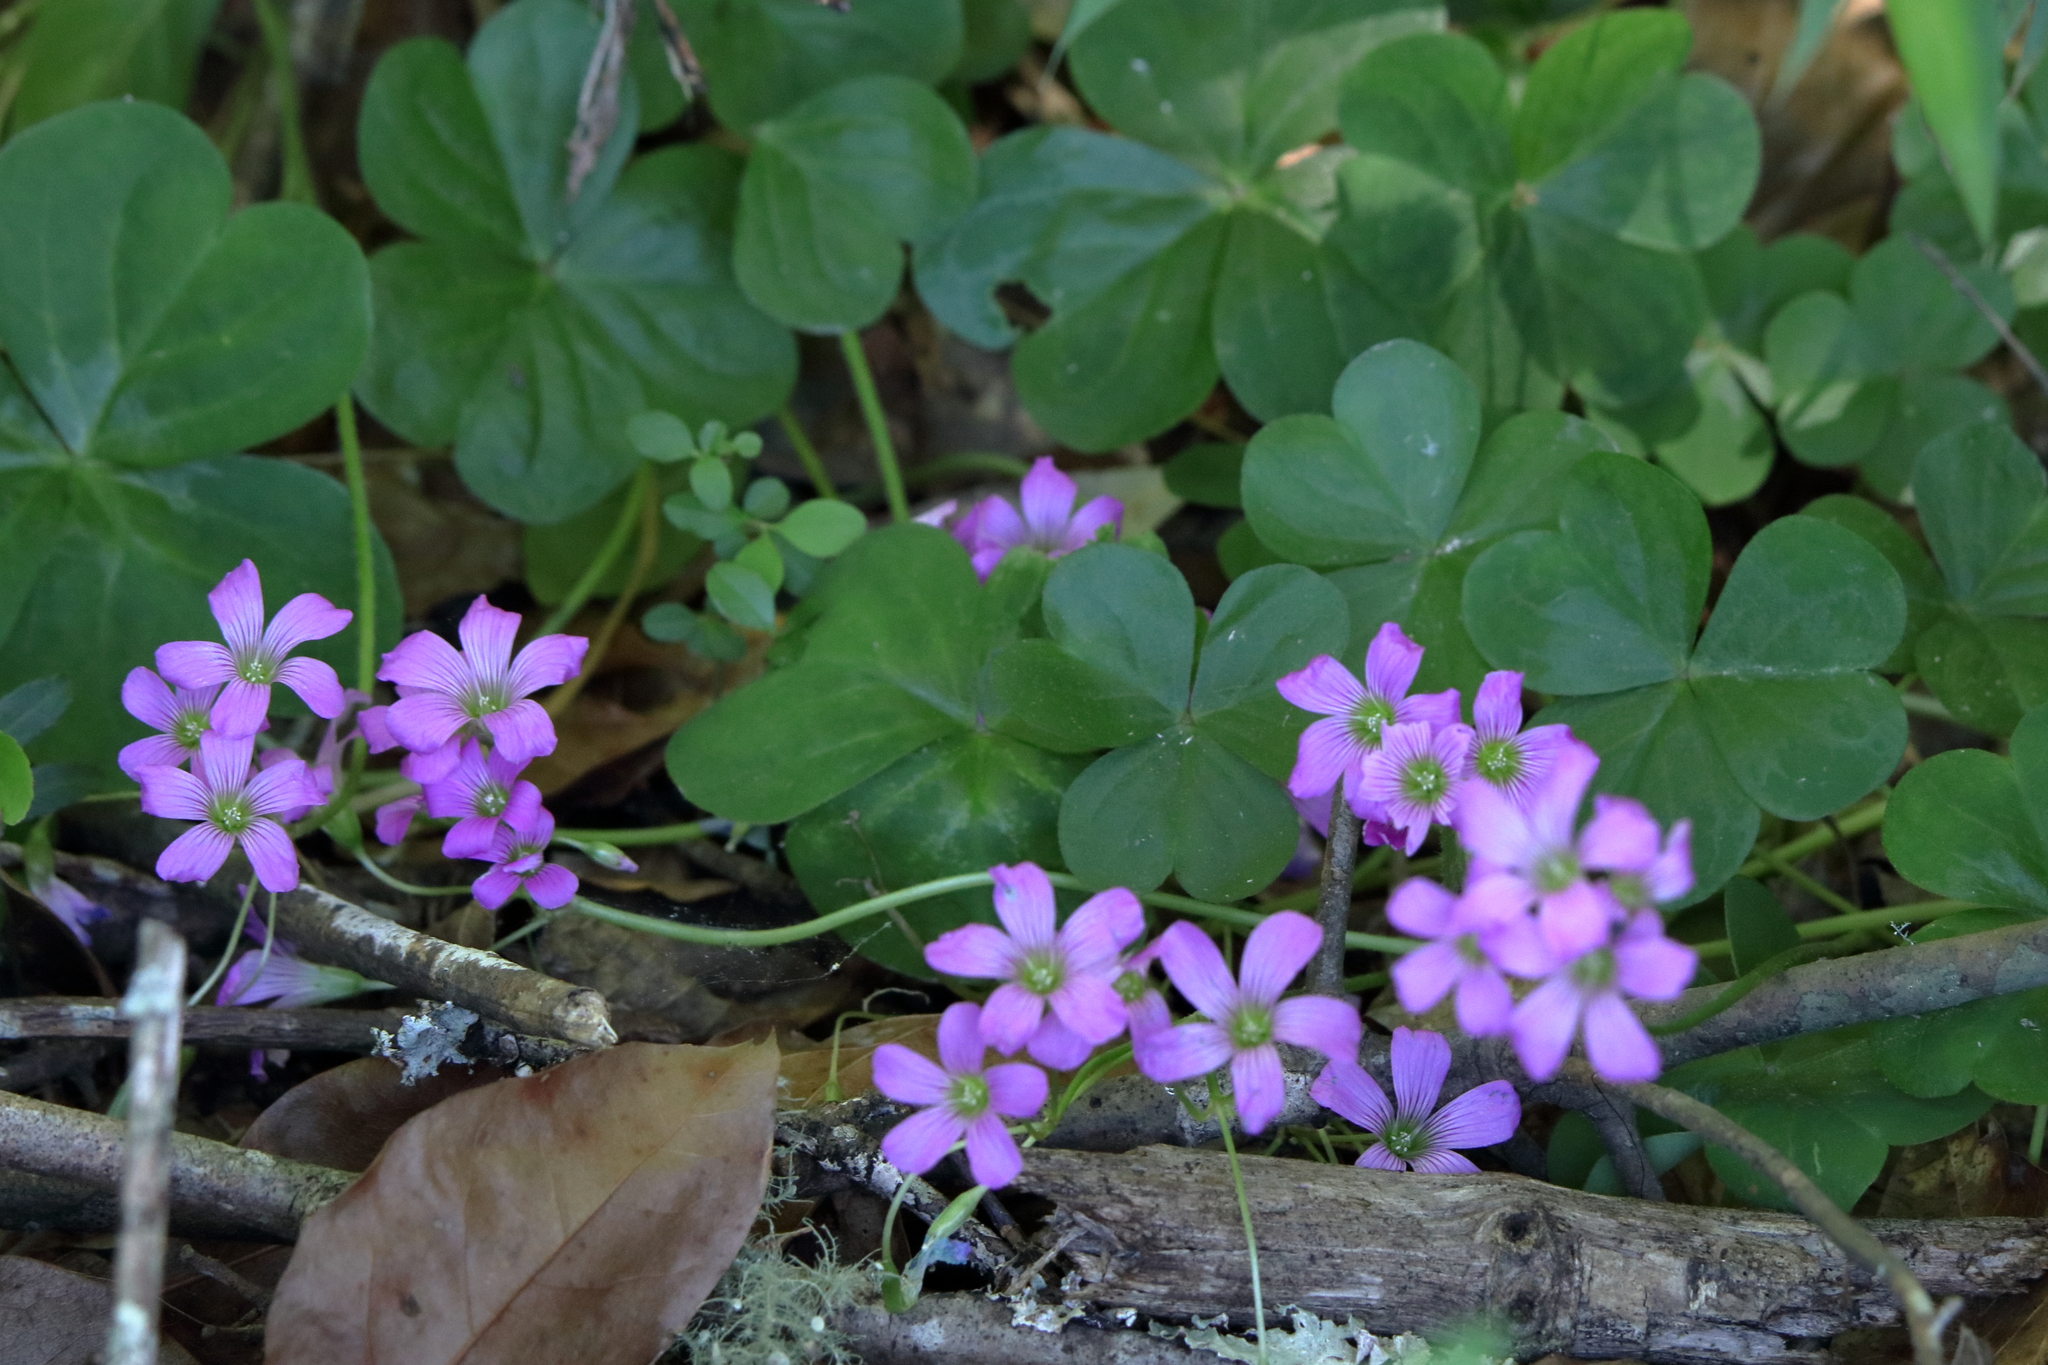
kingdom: Plantae
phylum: Tracheophyta
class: Magnoliopsida
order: Oxalidales
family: Oxalidaceae
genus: Oxalis
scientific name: Oxalis debilis
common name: Large-flowered pink-sorrel
